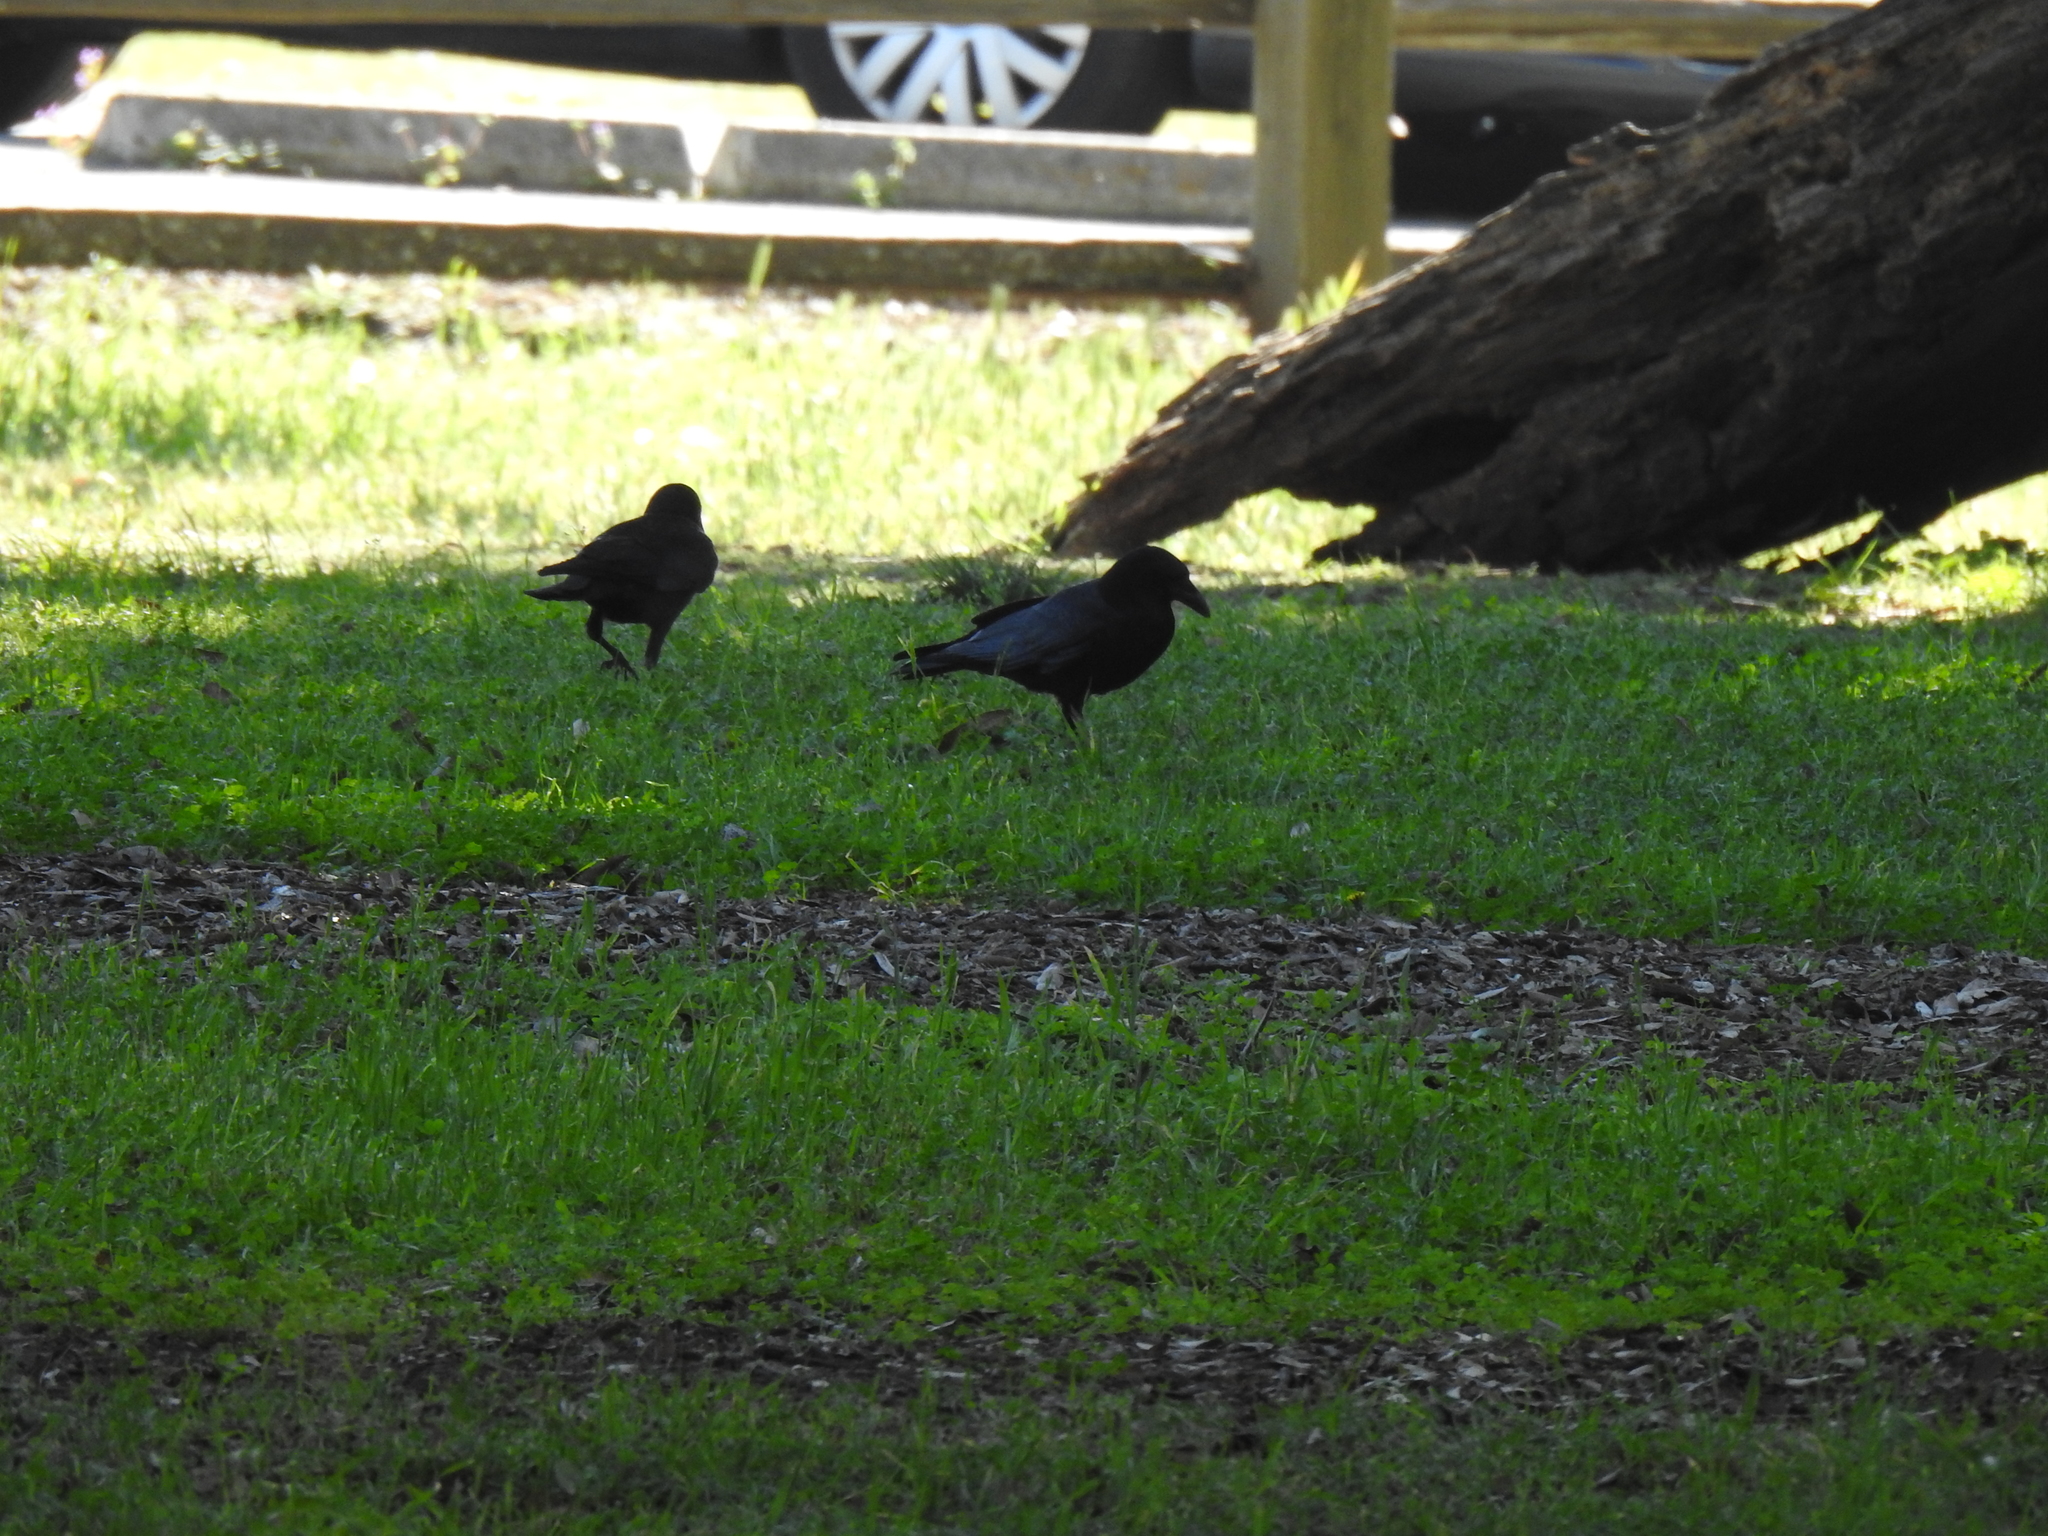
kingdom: Animalia
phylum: Chordata
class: Aves
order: Passeriformes
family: Corvidae
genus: Corvus
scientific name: Corvus brachyrhynchos
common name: American crow
